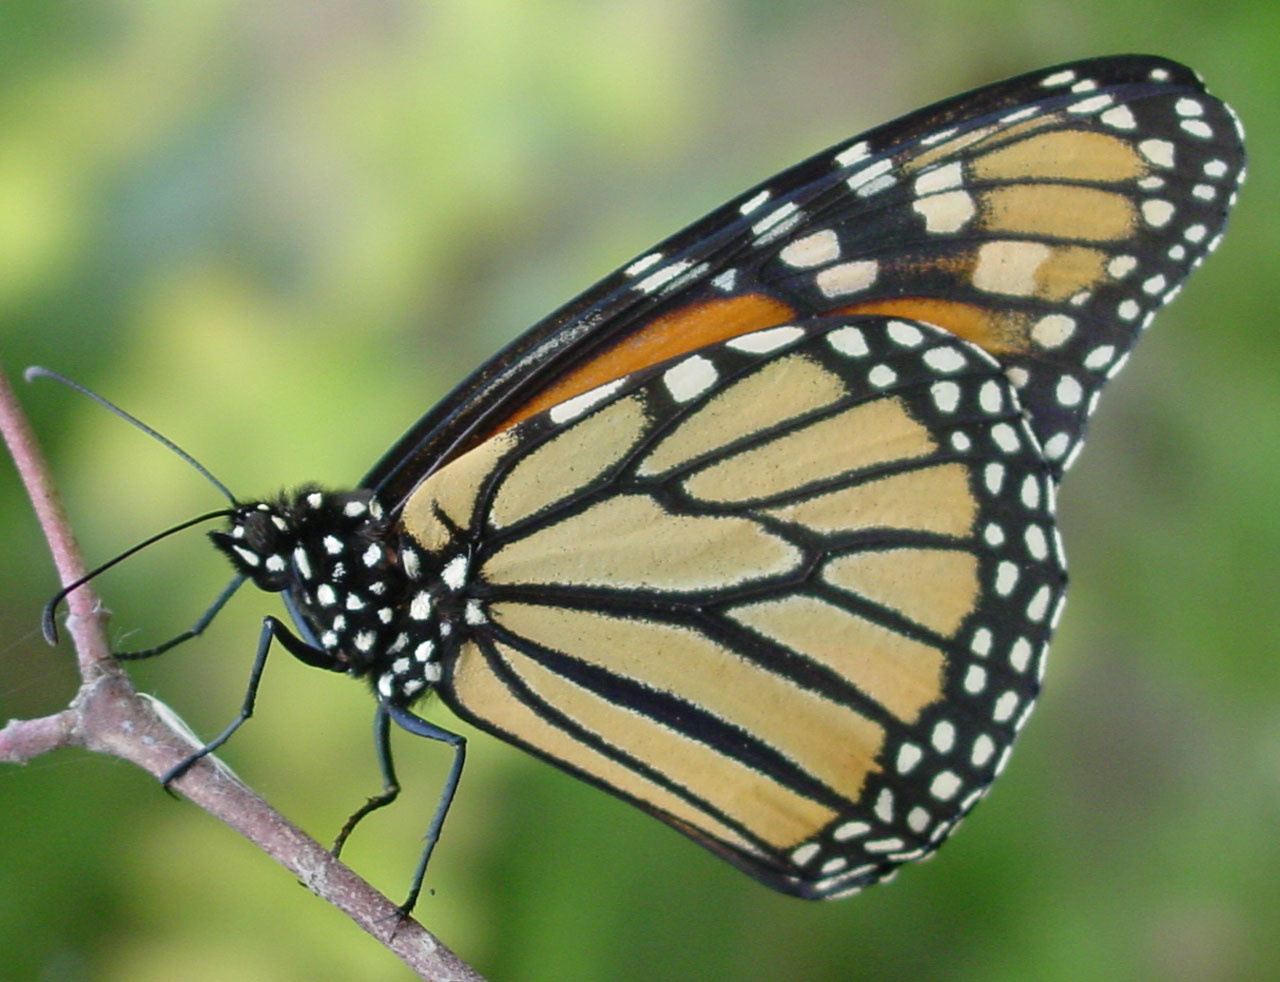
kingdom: Animalia
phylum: Arthropoda
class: Insecta
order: Lepidoptera
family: Nymphalidae
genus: Danaus
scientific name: Danaus plexippus
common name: Monarch
